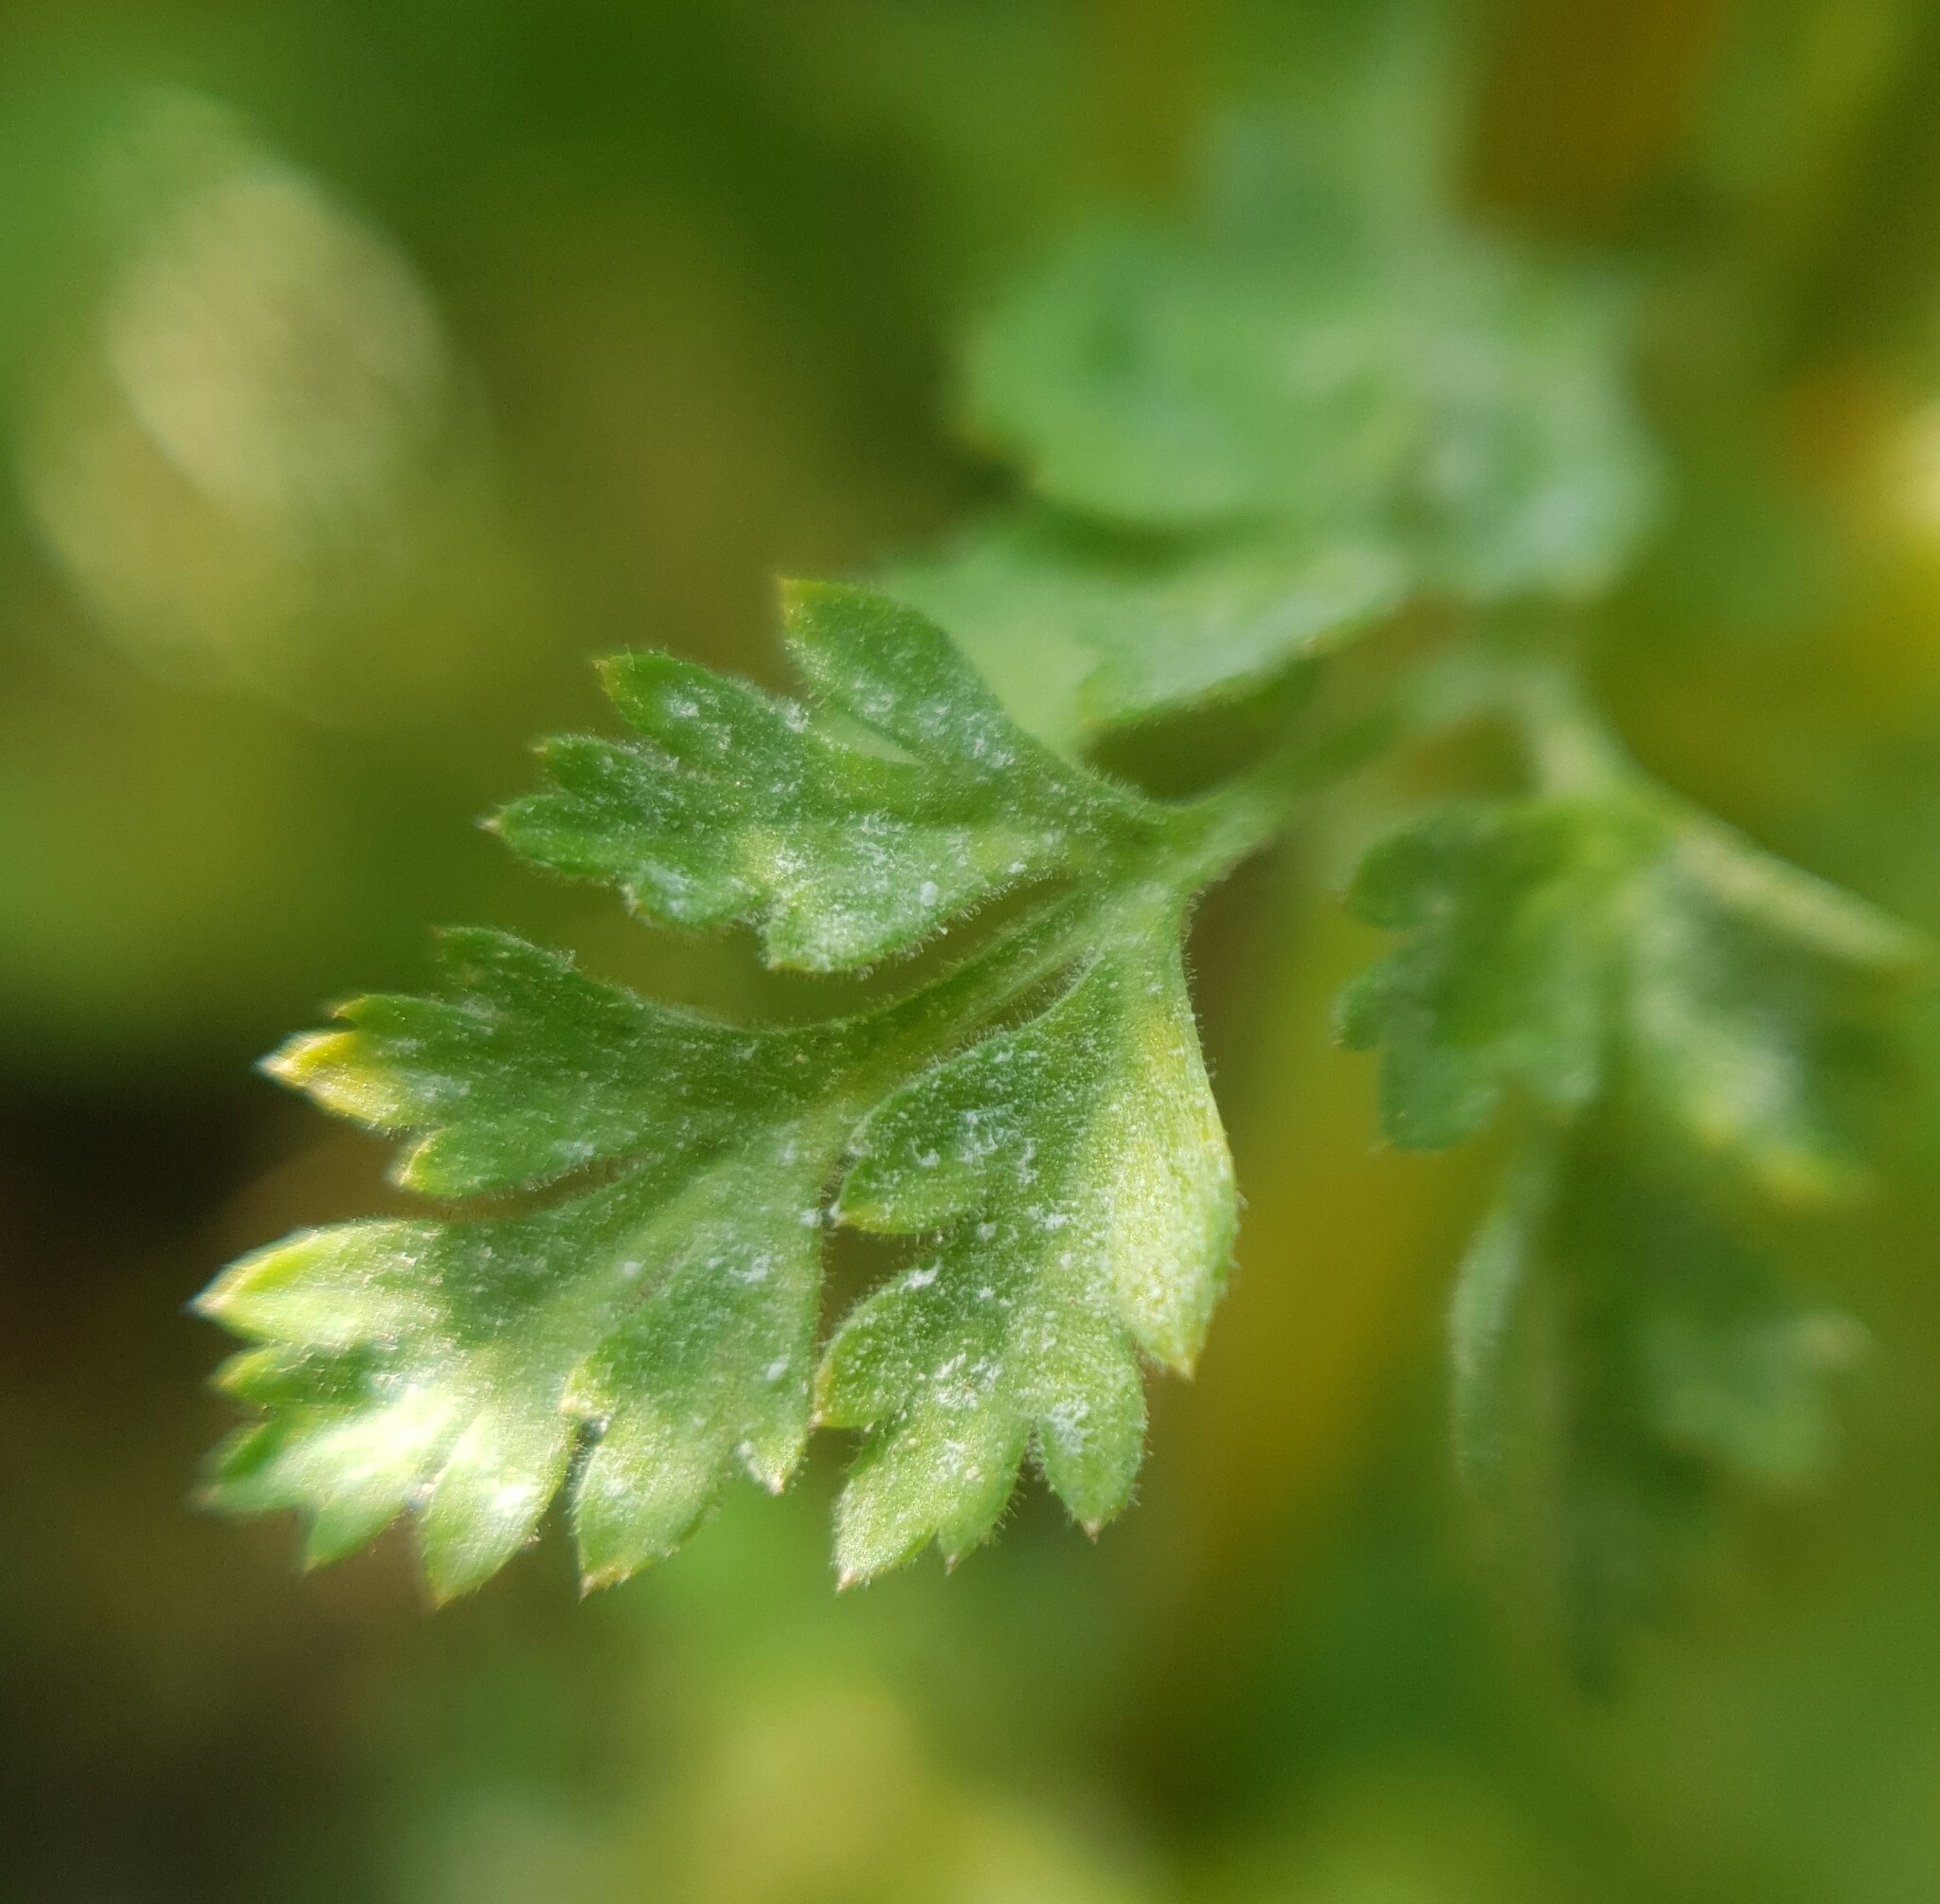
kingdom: Fungi
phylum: Ascomycota
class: Leotiomycetes
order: Helotiales
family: Erysiphaceae
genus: Erysiphe
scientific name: Erysiphe heraclei
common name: Umbellifer mildew
